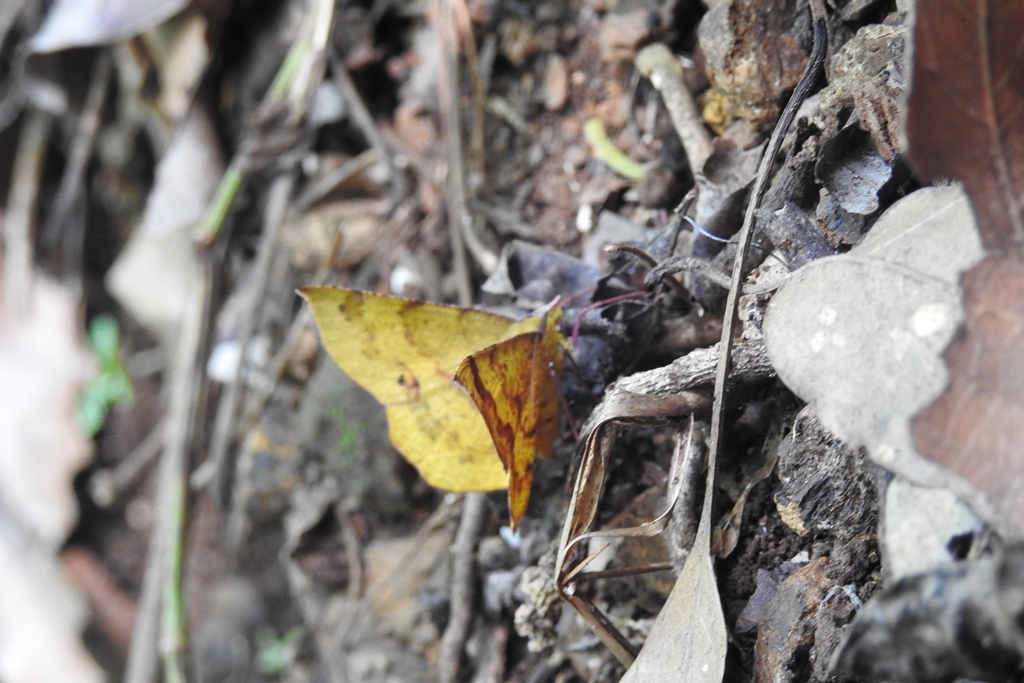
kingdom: Animalia
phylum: Arthropoda
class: Insecta
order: Lepidoptera
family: Geometridae
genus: Erastria
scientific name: Erastria decrepitaria
